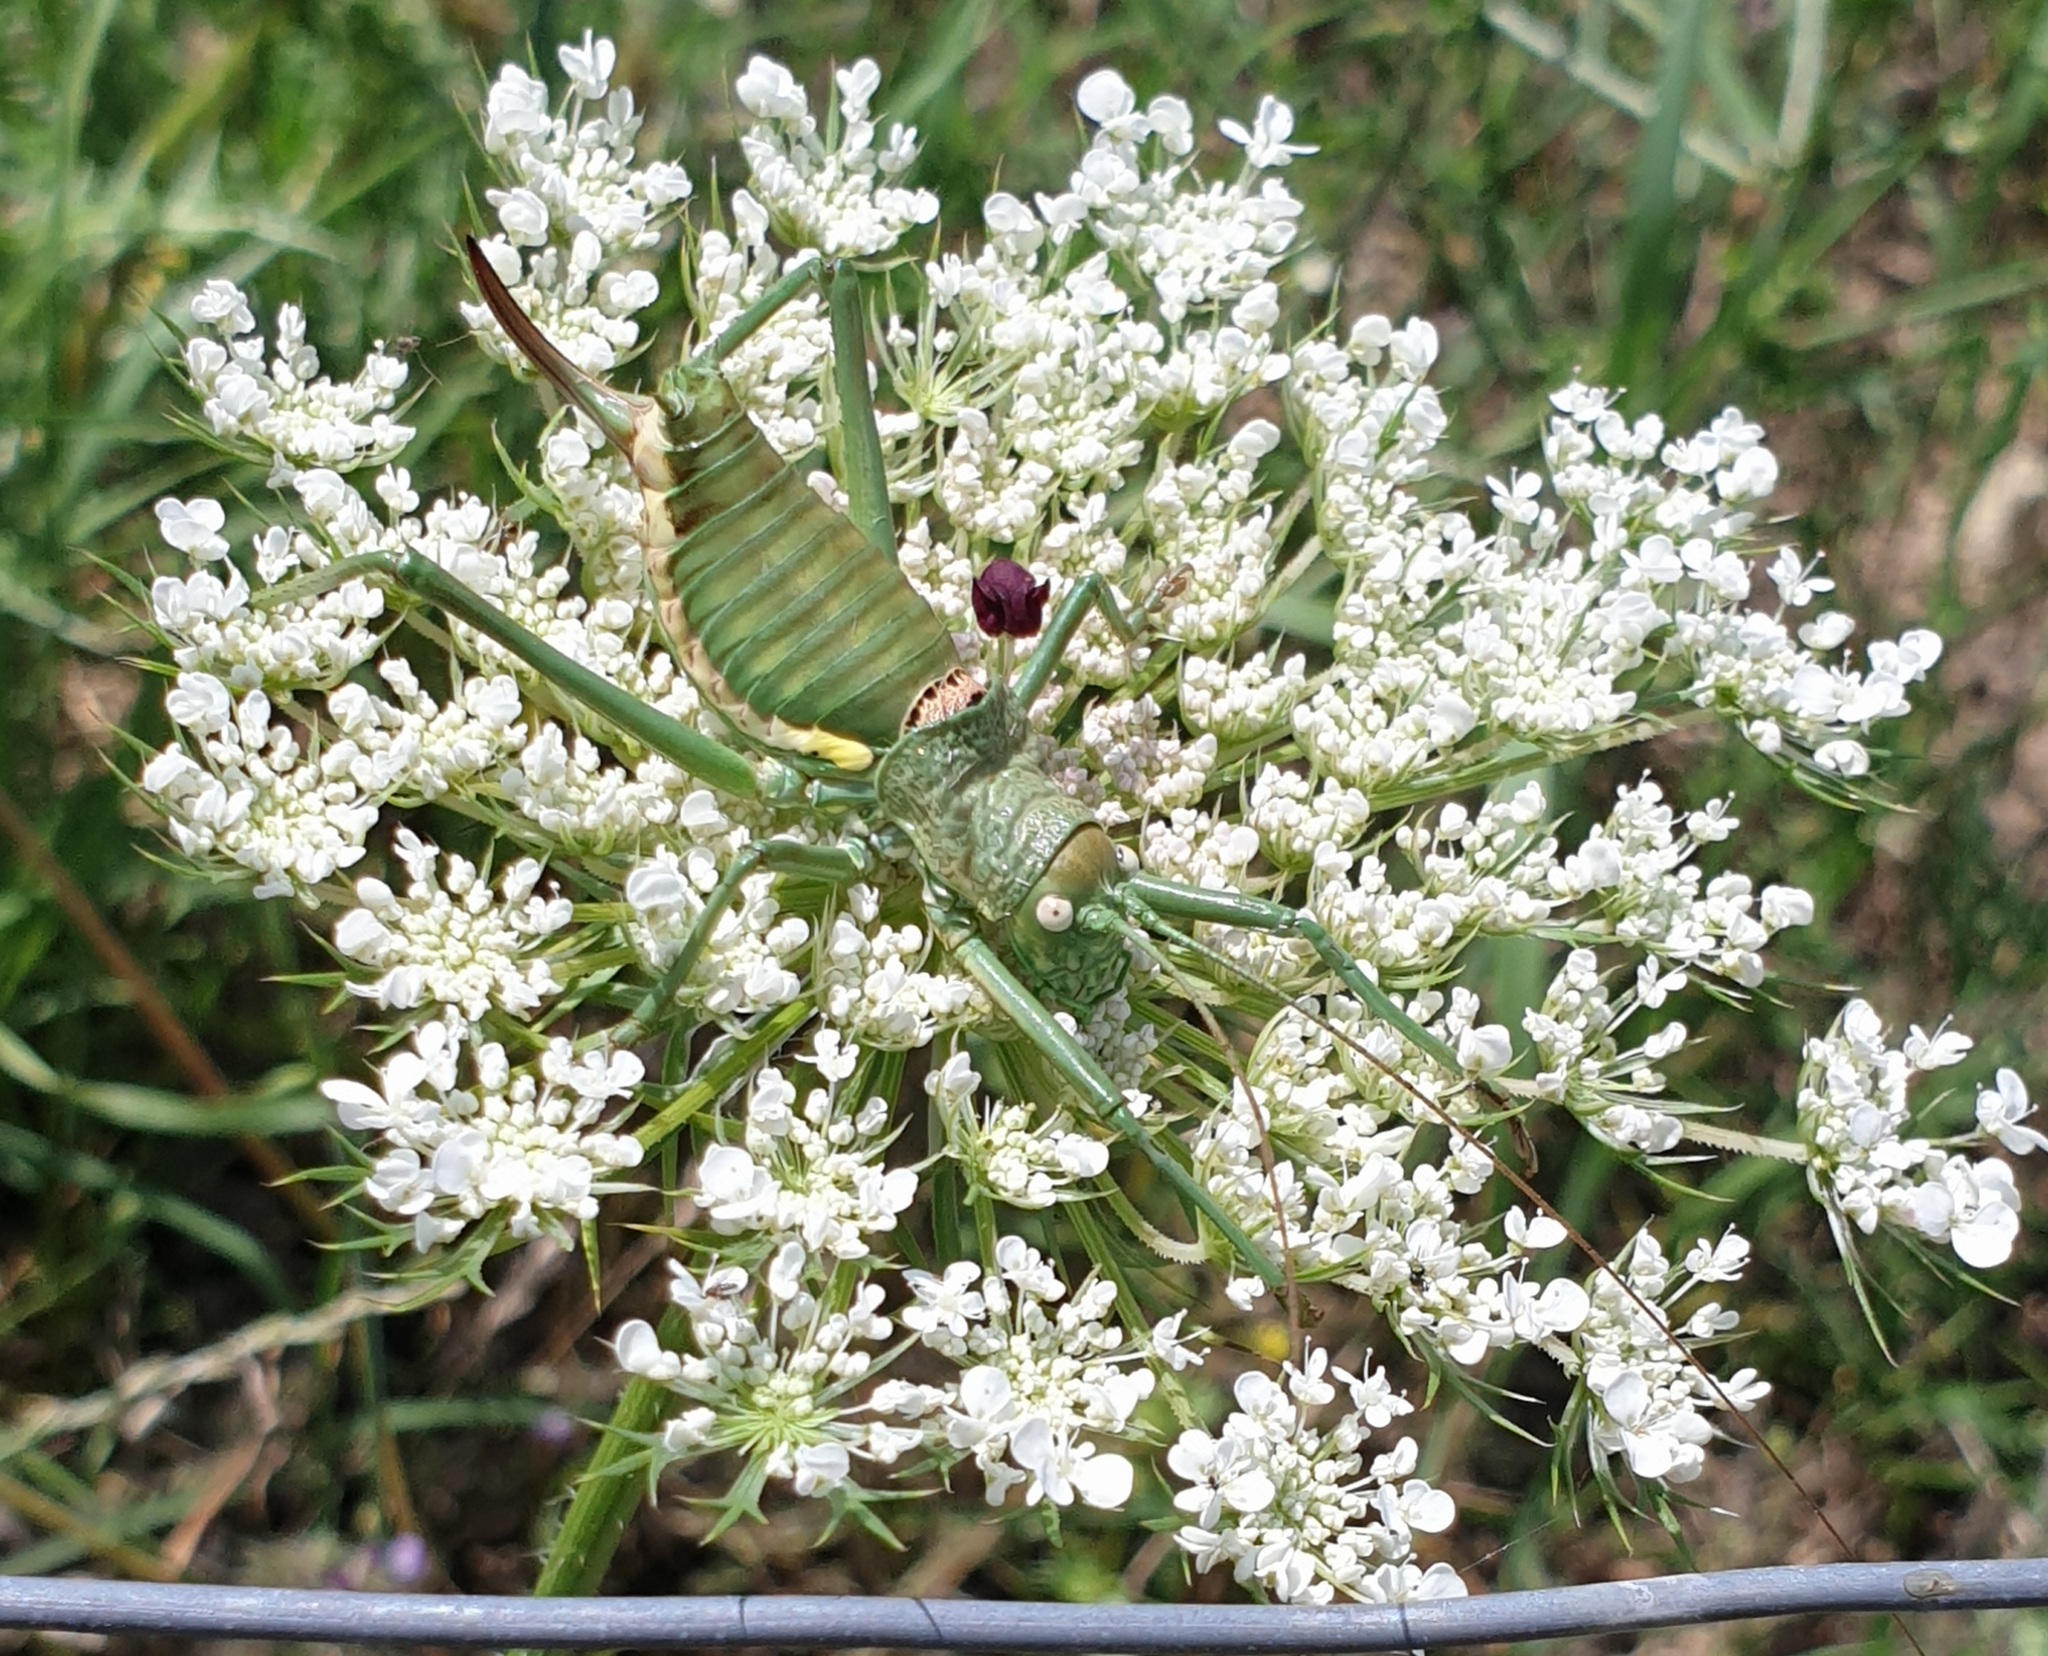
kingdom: Animalia
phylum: Arthropoda
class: Insecta
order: Orthoptera
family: Tettigoniidae
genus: Uromenus
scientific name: Uromenus brevicollis
